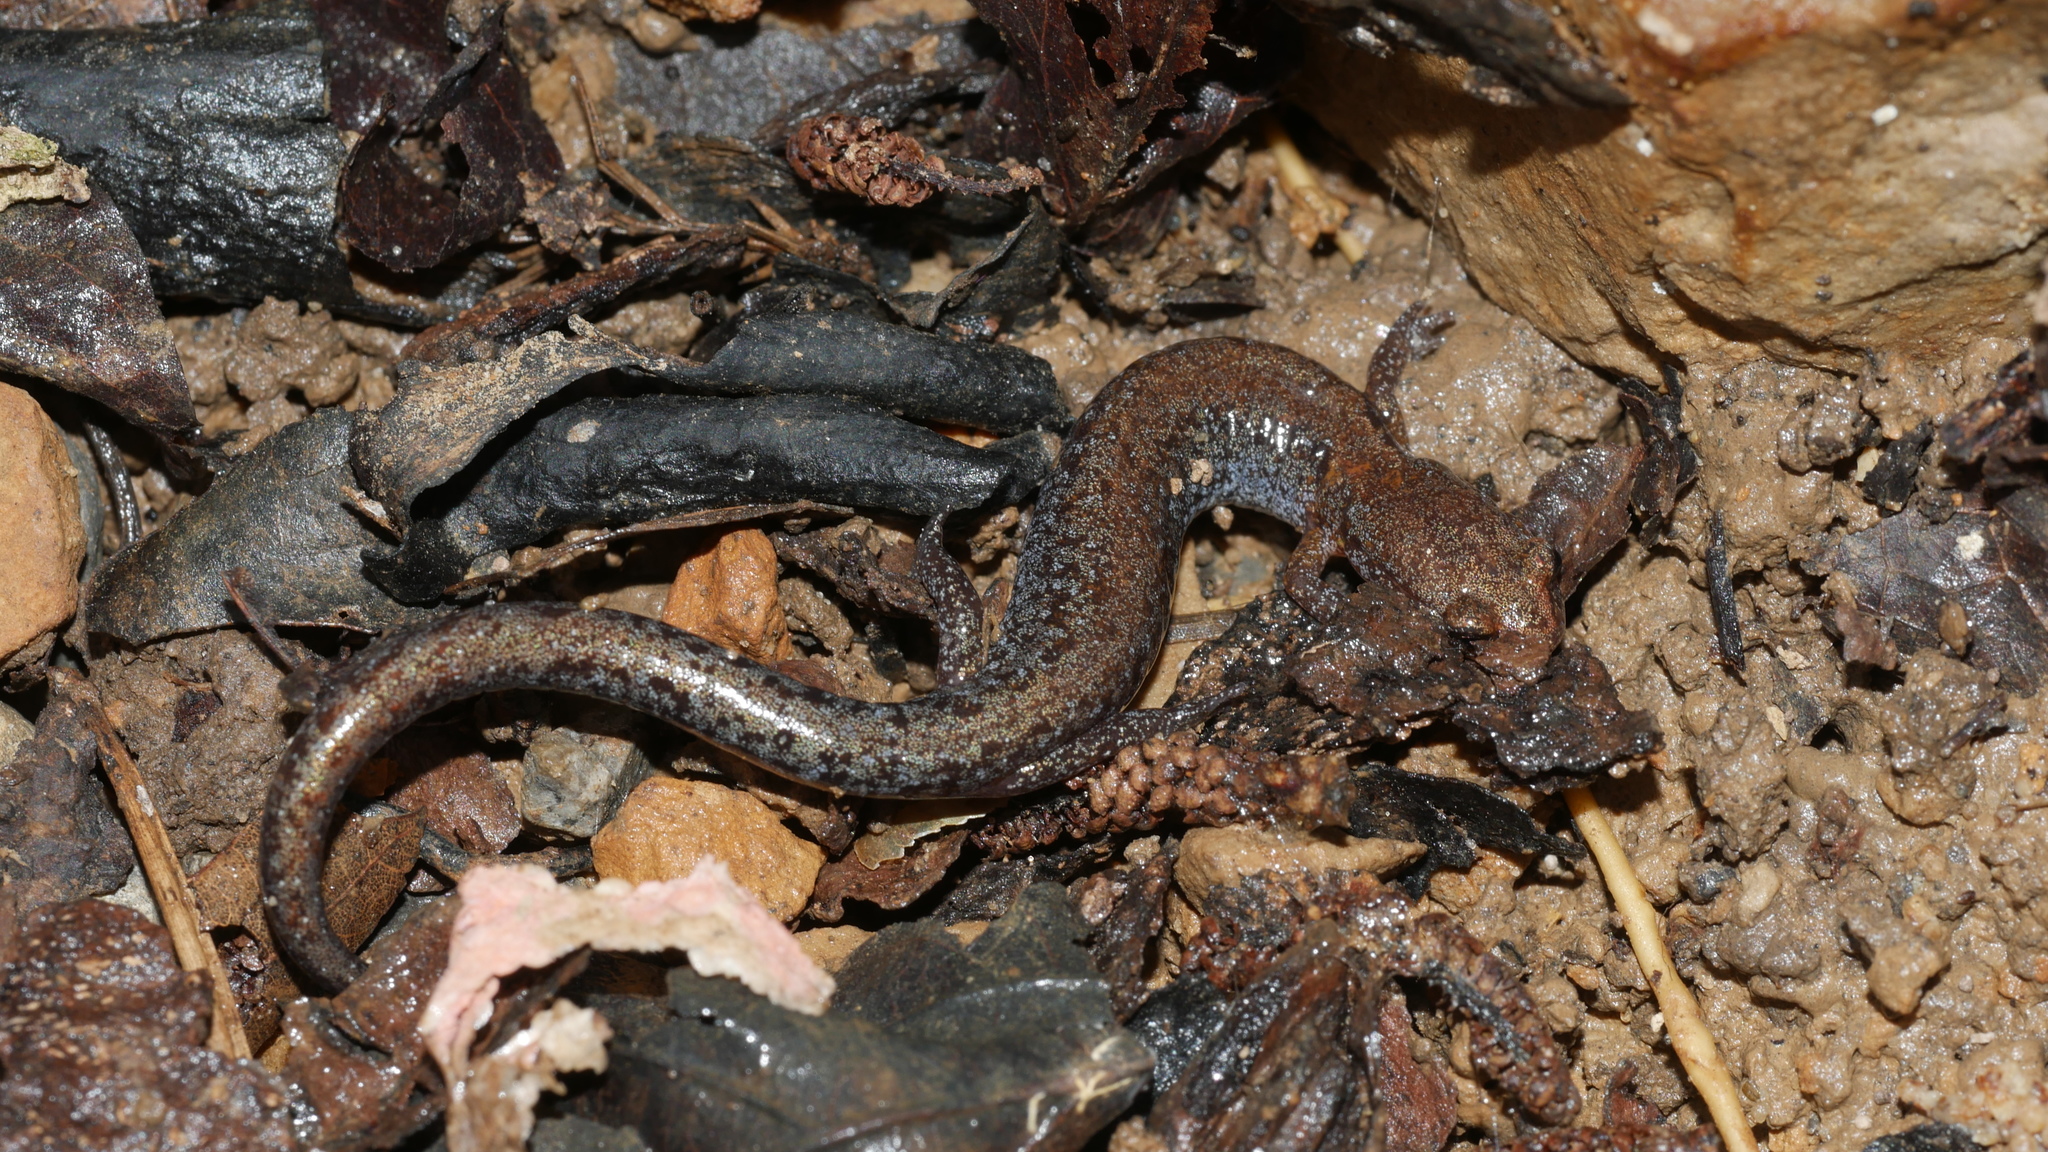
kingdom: Animalia
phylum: Chordata
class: Amphibia
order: Caudata
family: Plethodontidae
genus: Plethodon
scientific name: Plethodon
